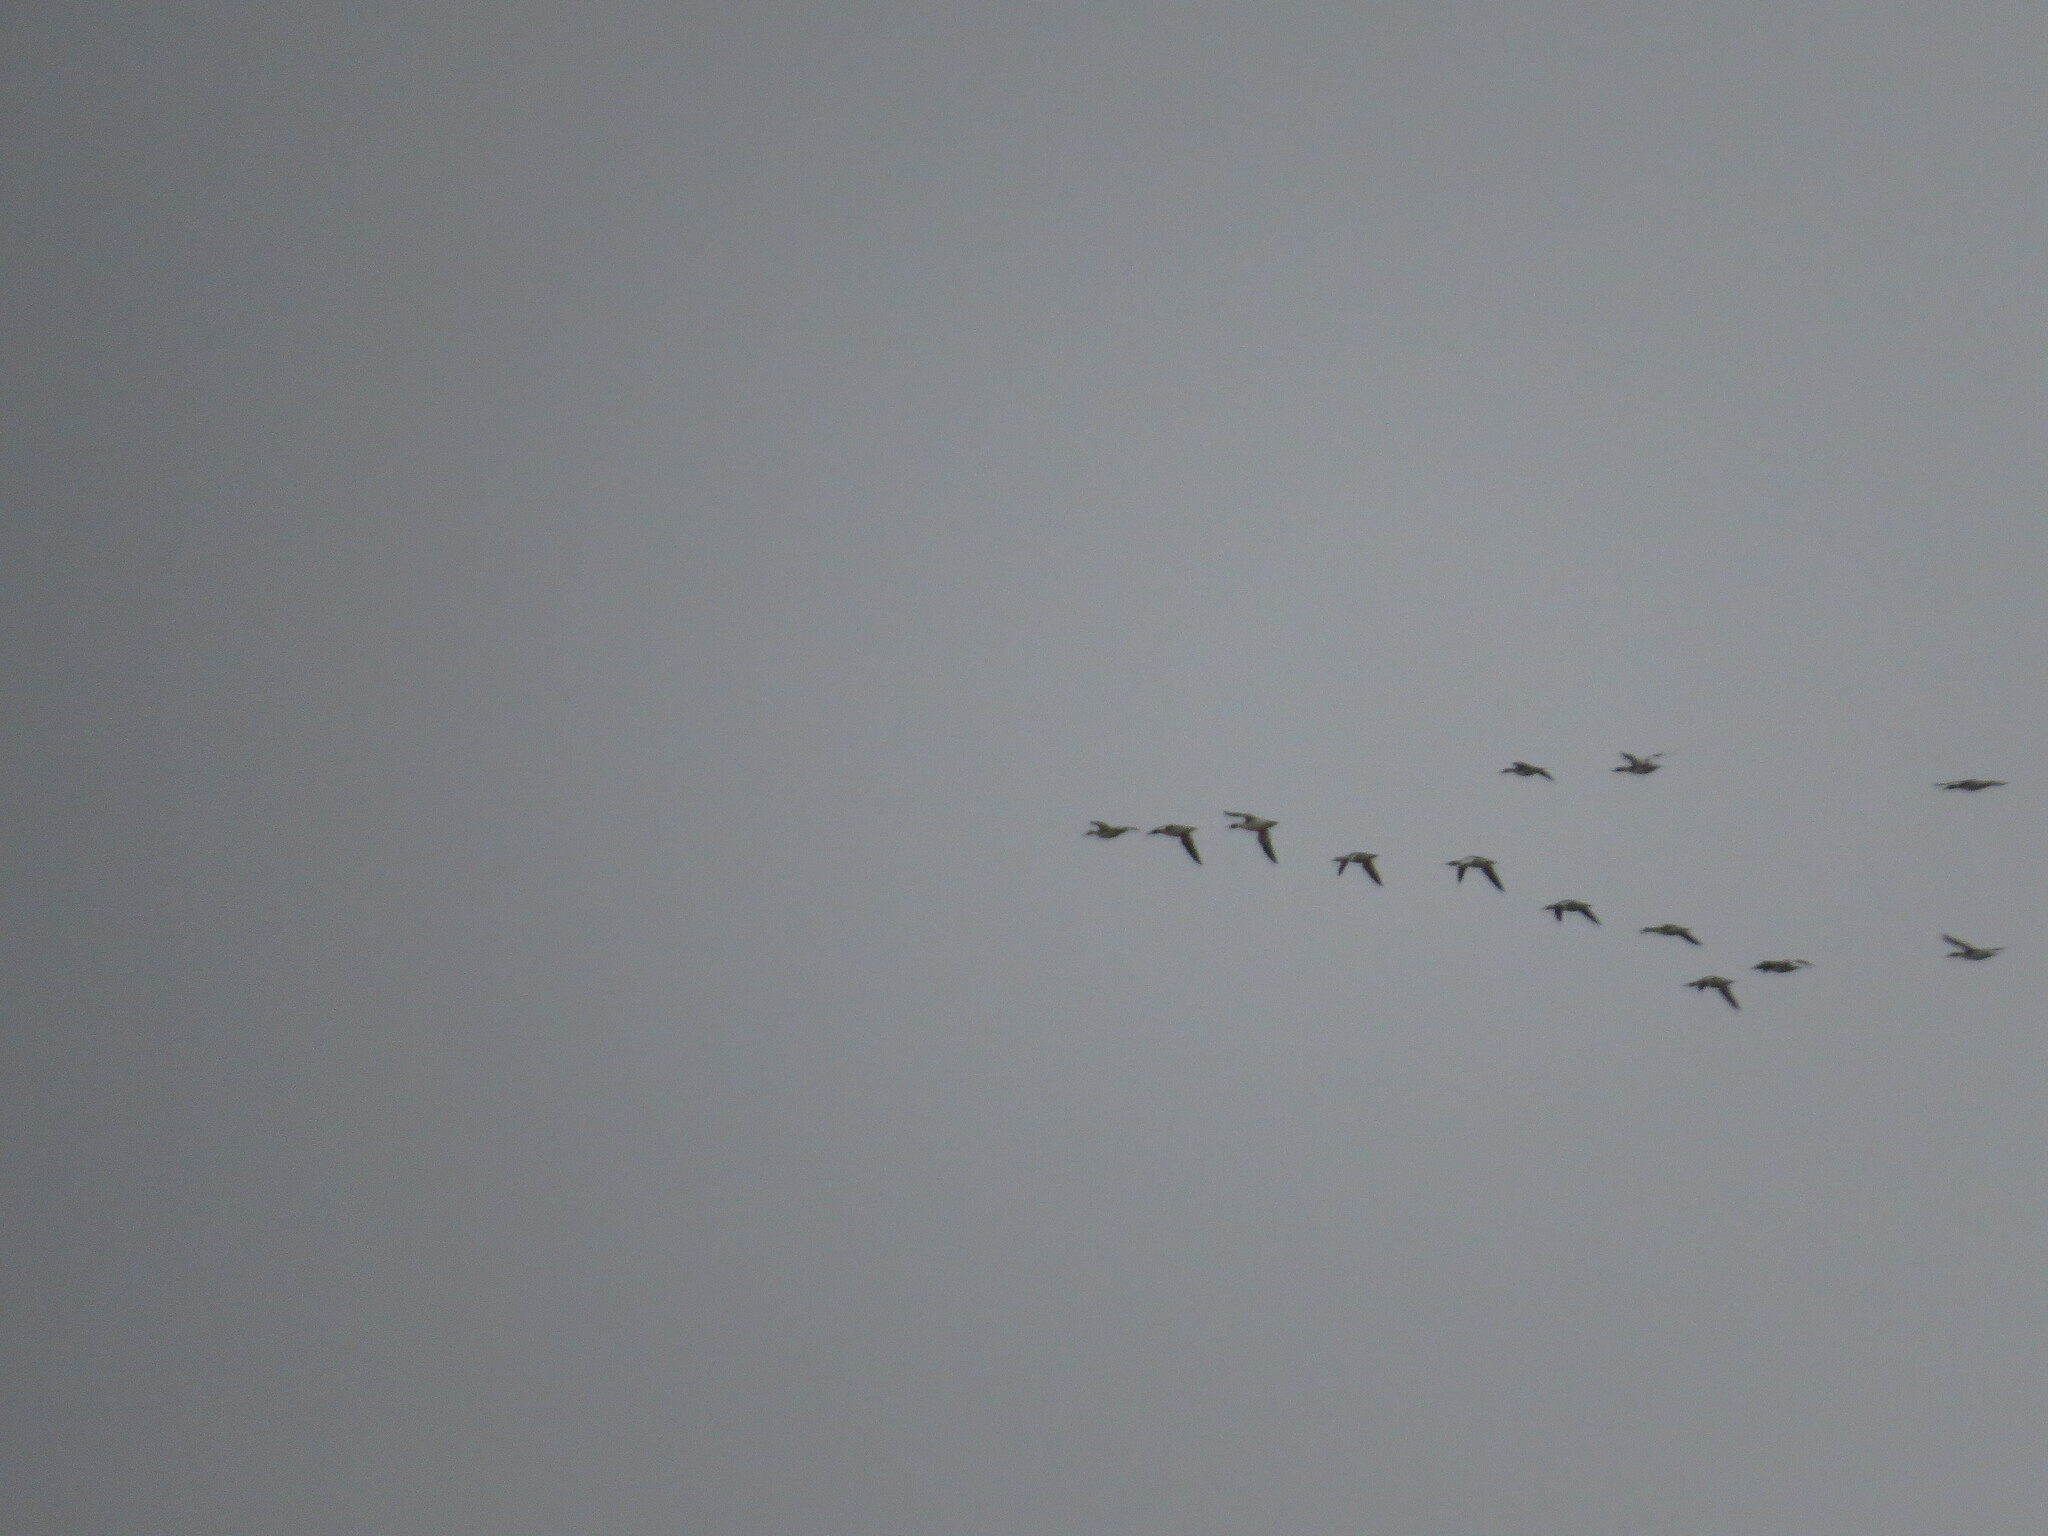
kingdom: Animalia
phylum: Chordata
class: Aves
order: Anseriformes
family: Anatidae
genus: Mergus
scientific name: Mergus merganser
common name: Common merganser
